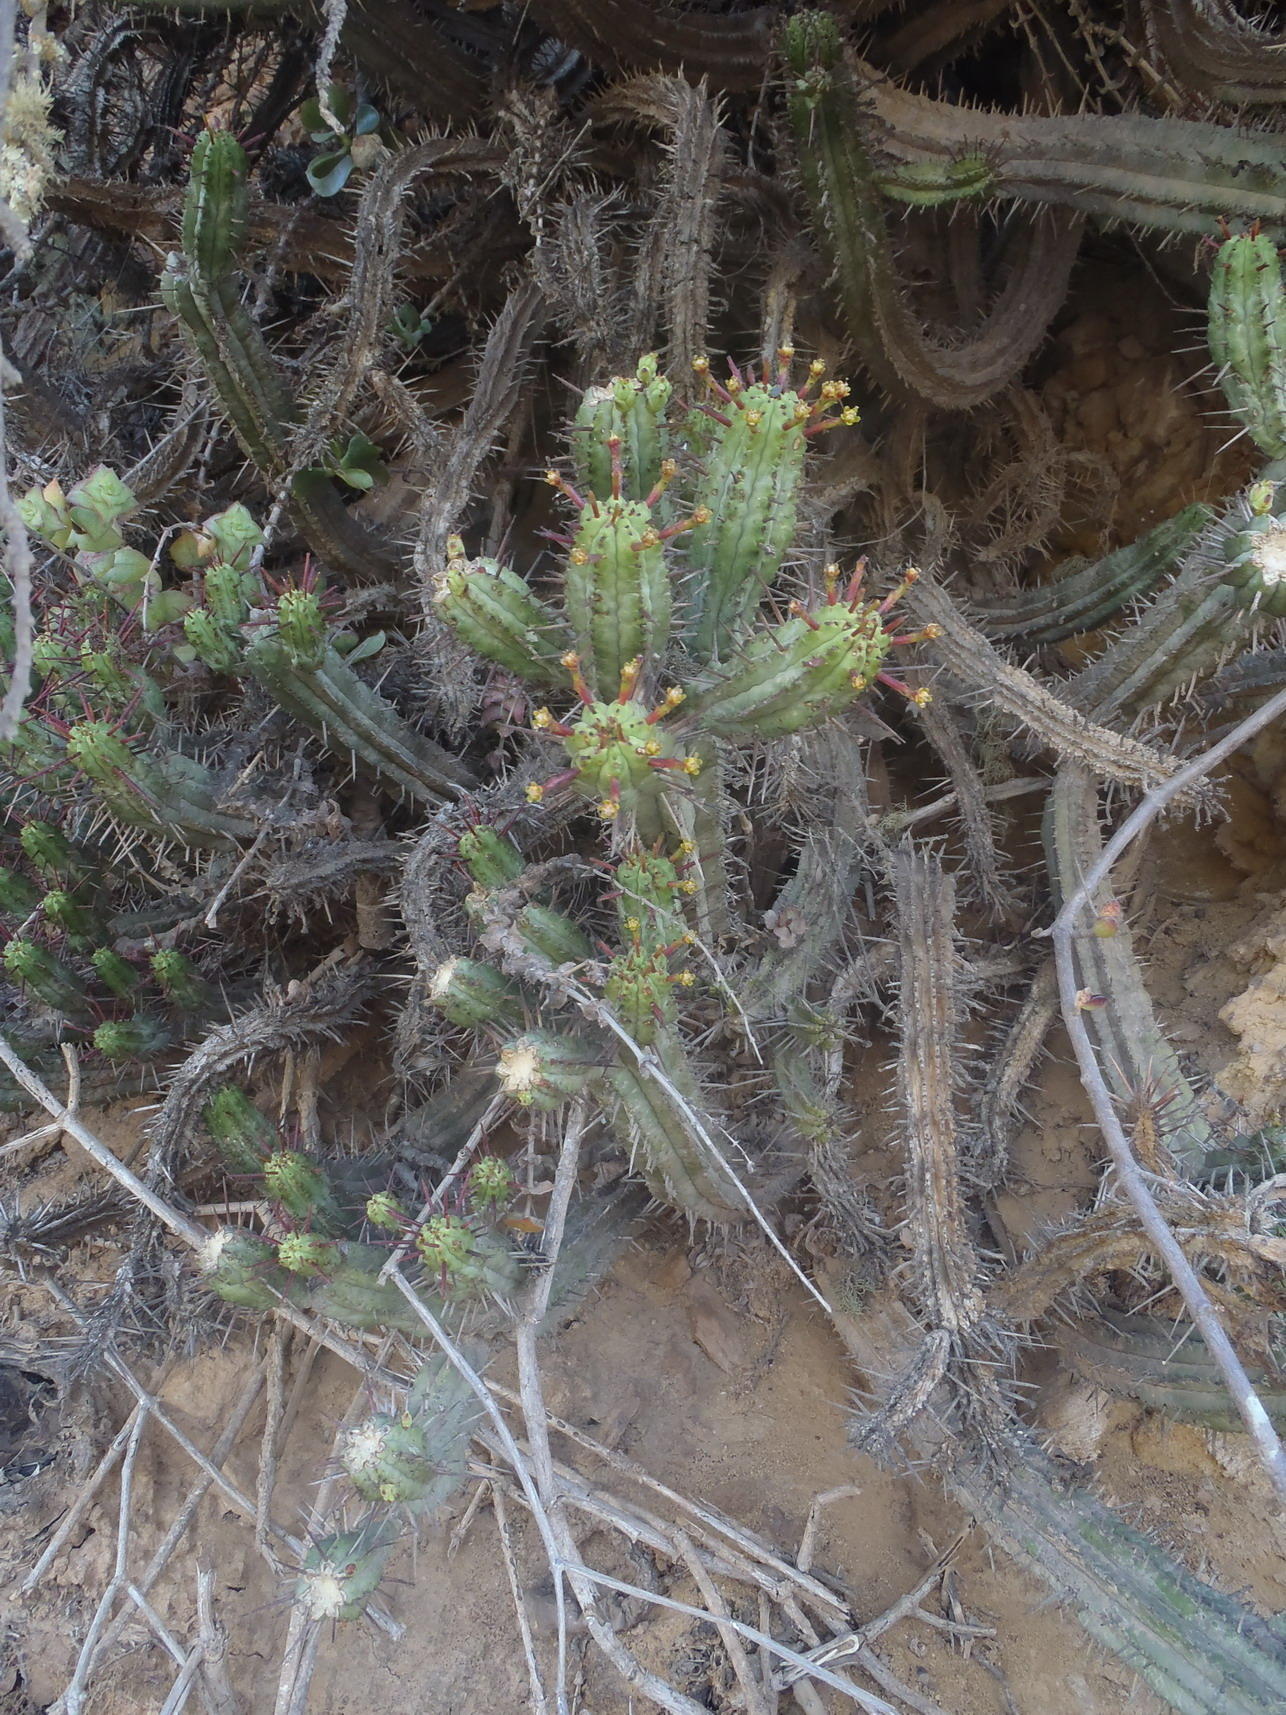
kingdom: Plantae
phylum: Tracheophyta
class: Magnoliopsida
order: Malpighiales
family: Euphorbiaceae
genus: Euphorbia
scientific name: Euphorbia heptagona
